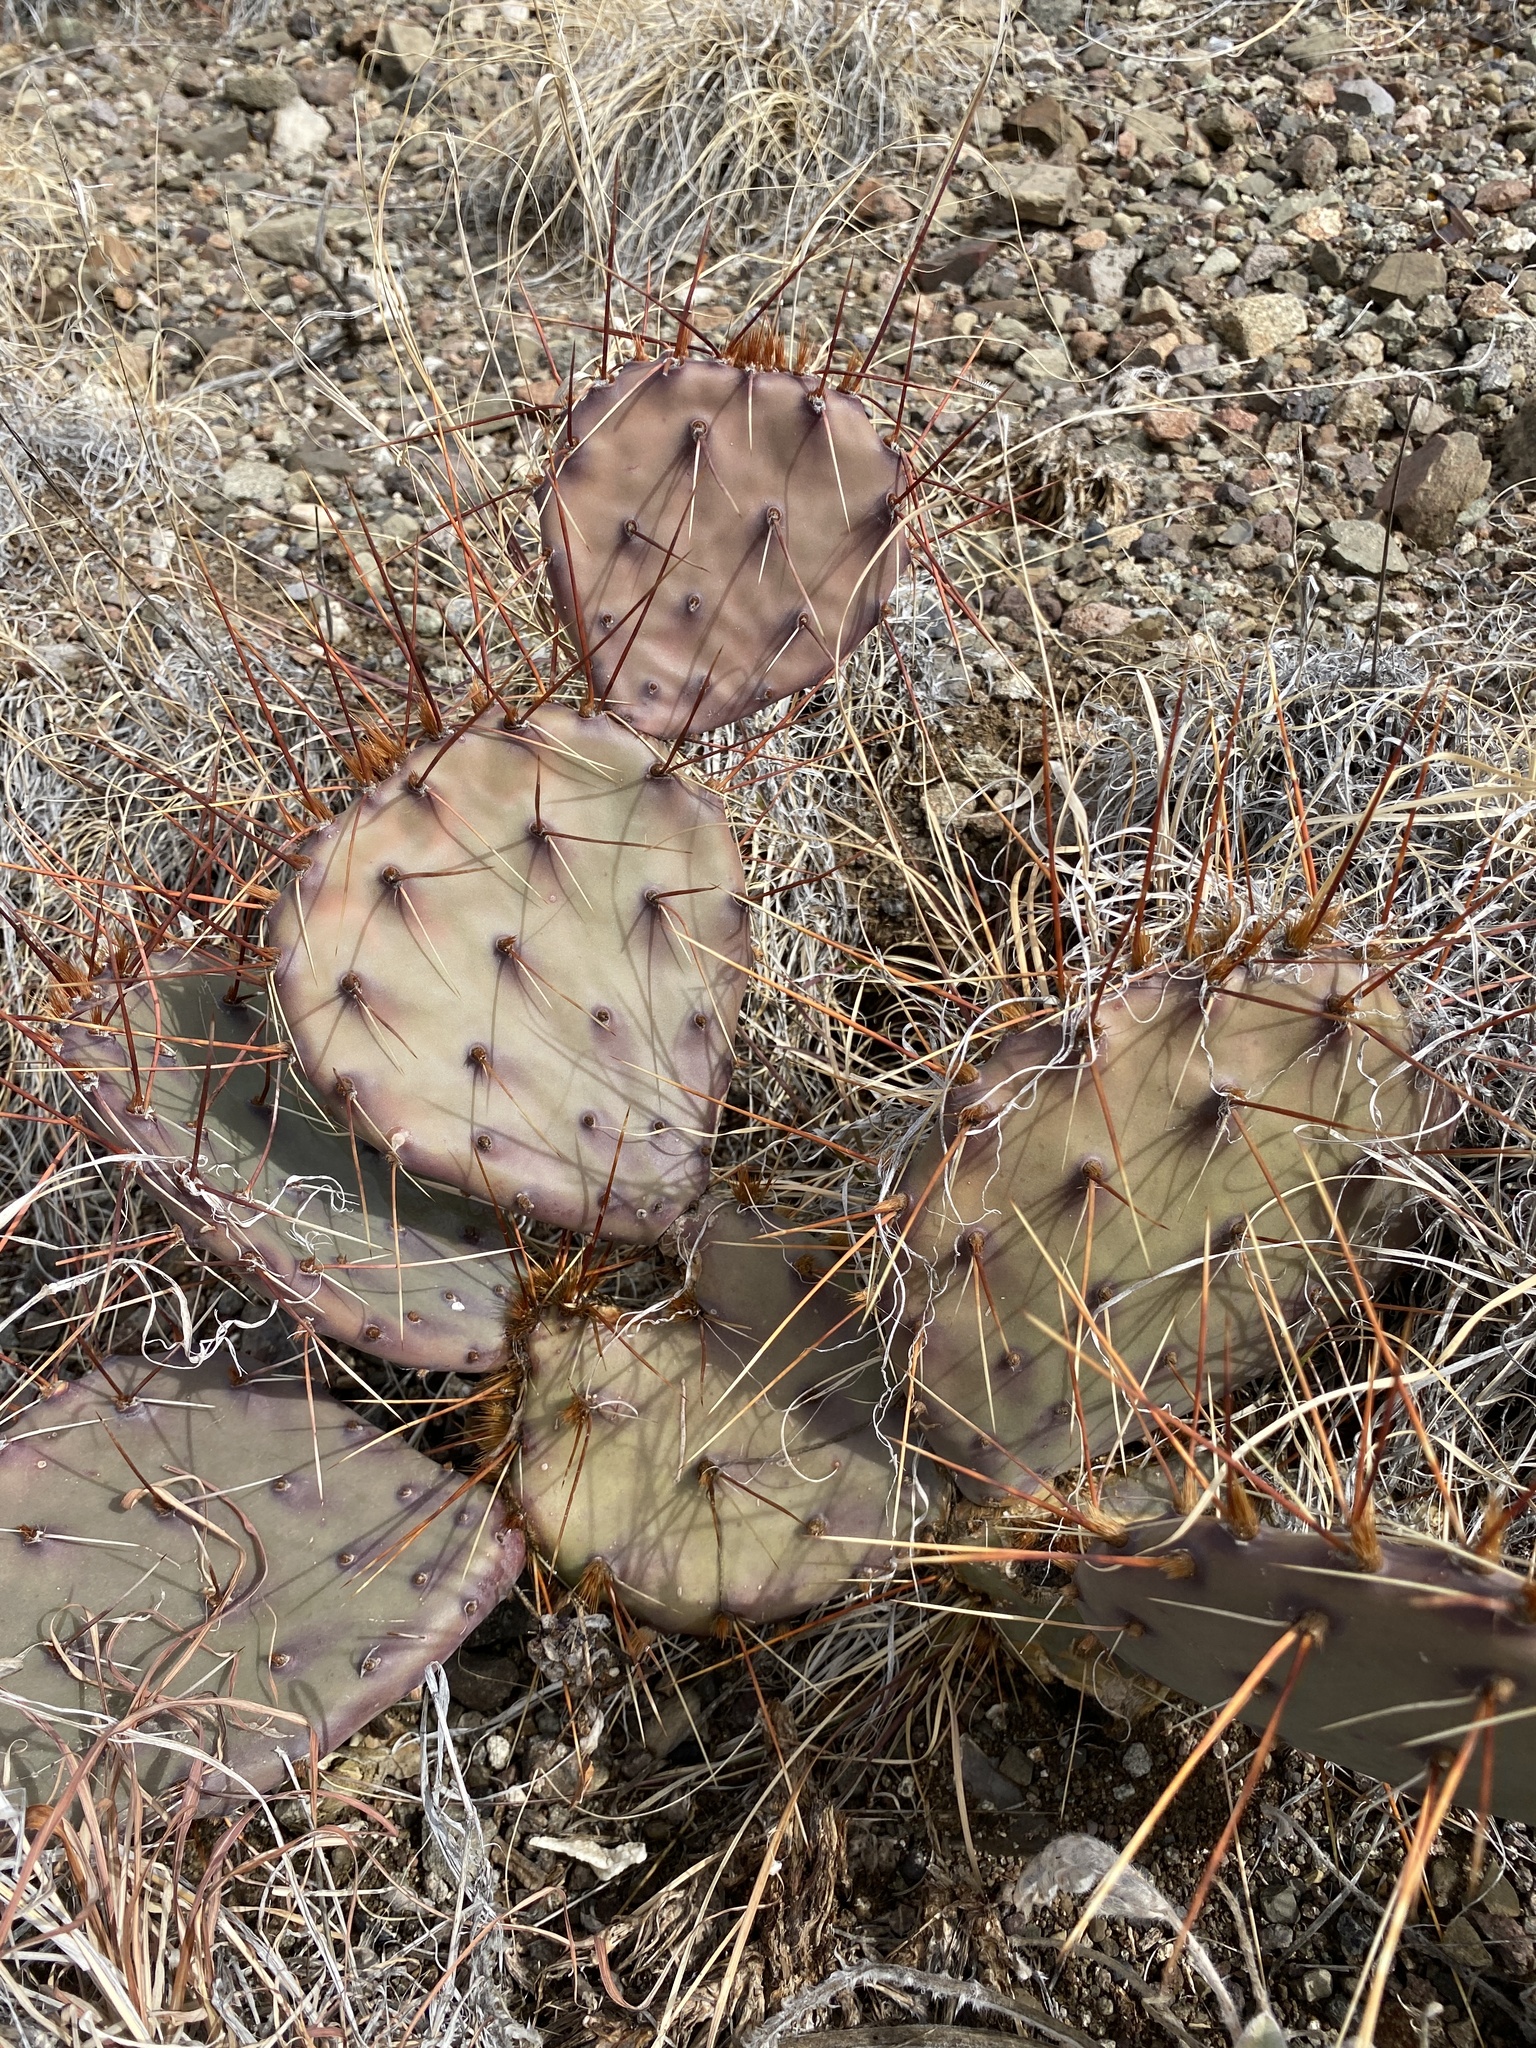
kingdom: Plantae
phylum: Tracheophyta
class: Magnoliopsida
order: Caryophyllales
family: Cactaceae
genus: Opuntia
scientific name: Opuntia phaeacantha
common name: New mexico prickly-pear
